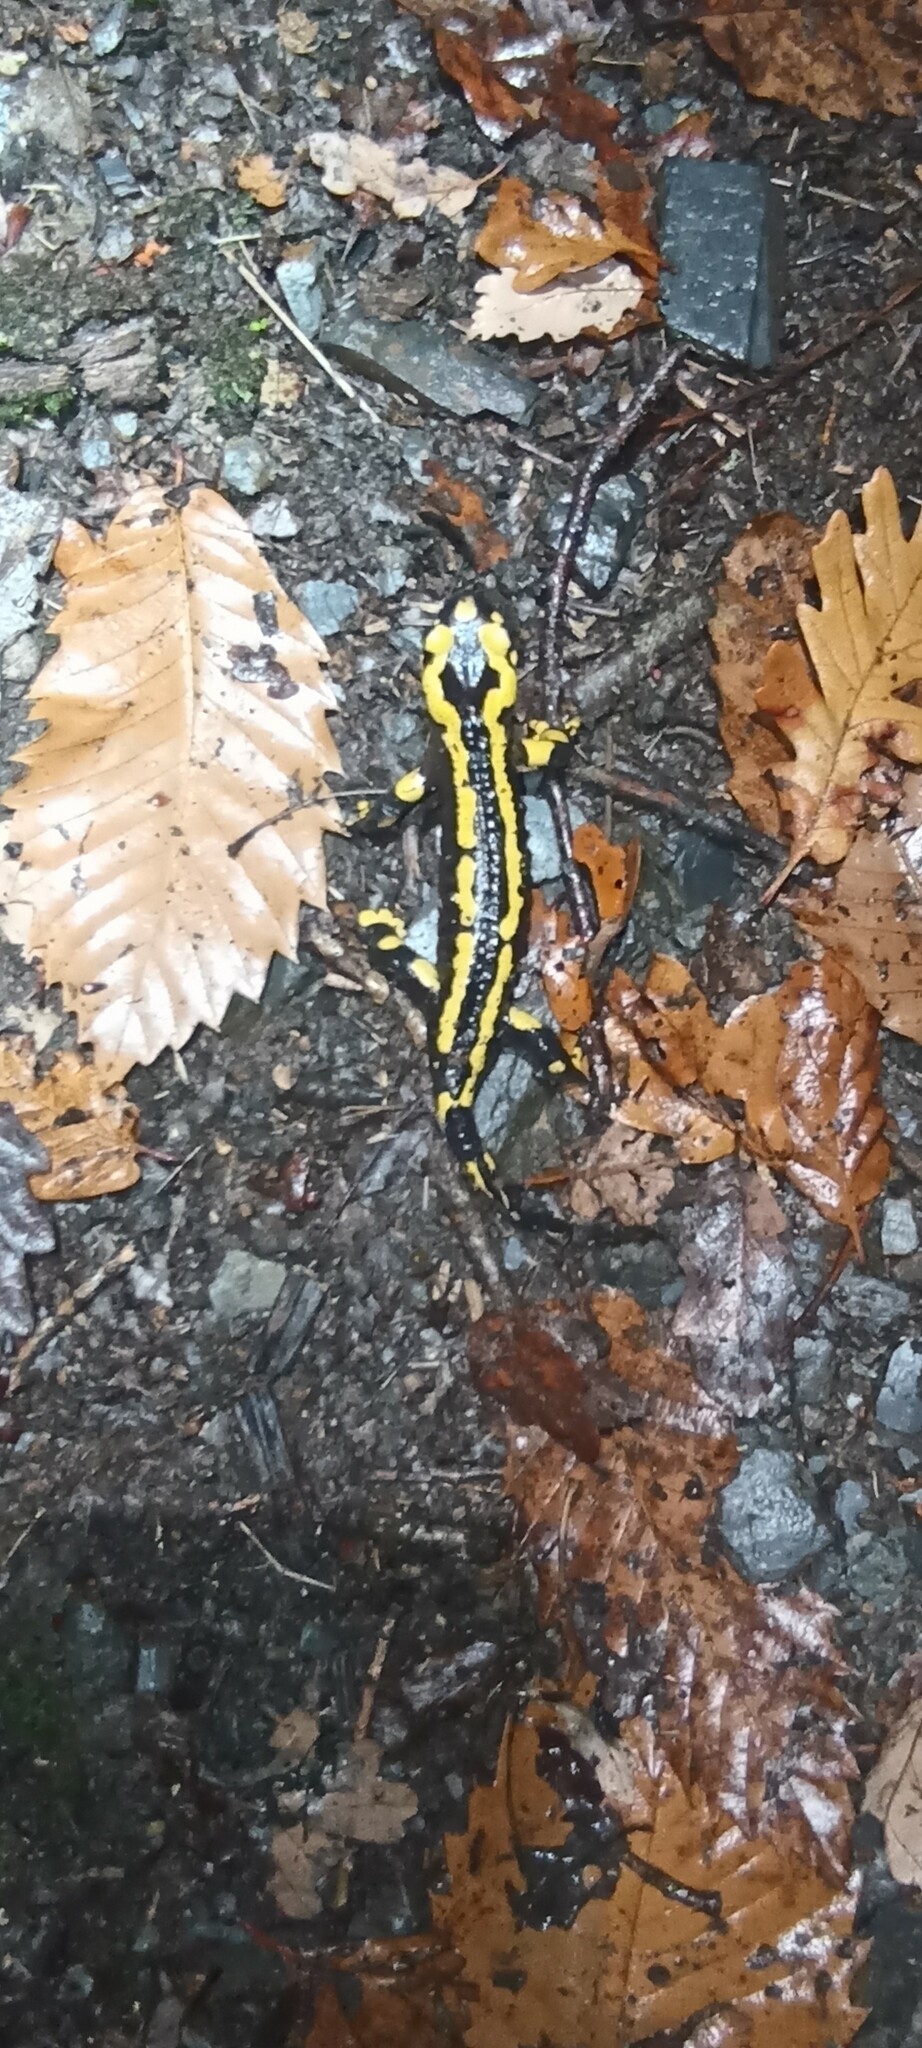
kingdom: Animalia
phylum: Chordata
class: Amphibia
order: Caudata
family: Salamandridae
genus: Salamandra
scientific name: Salamandra salamandra
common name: Fire salamander
